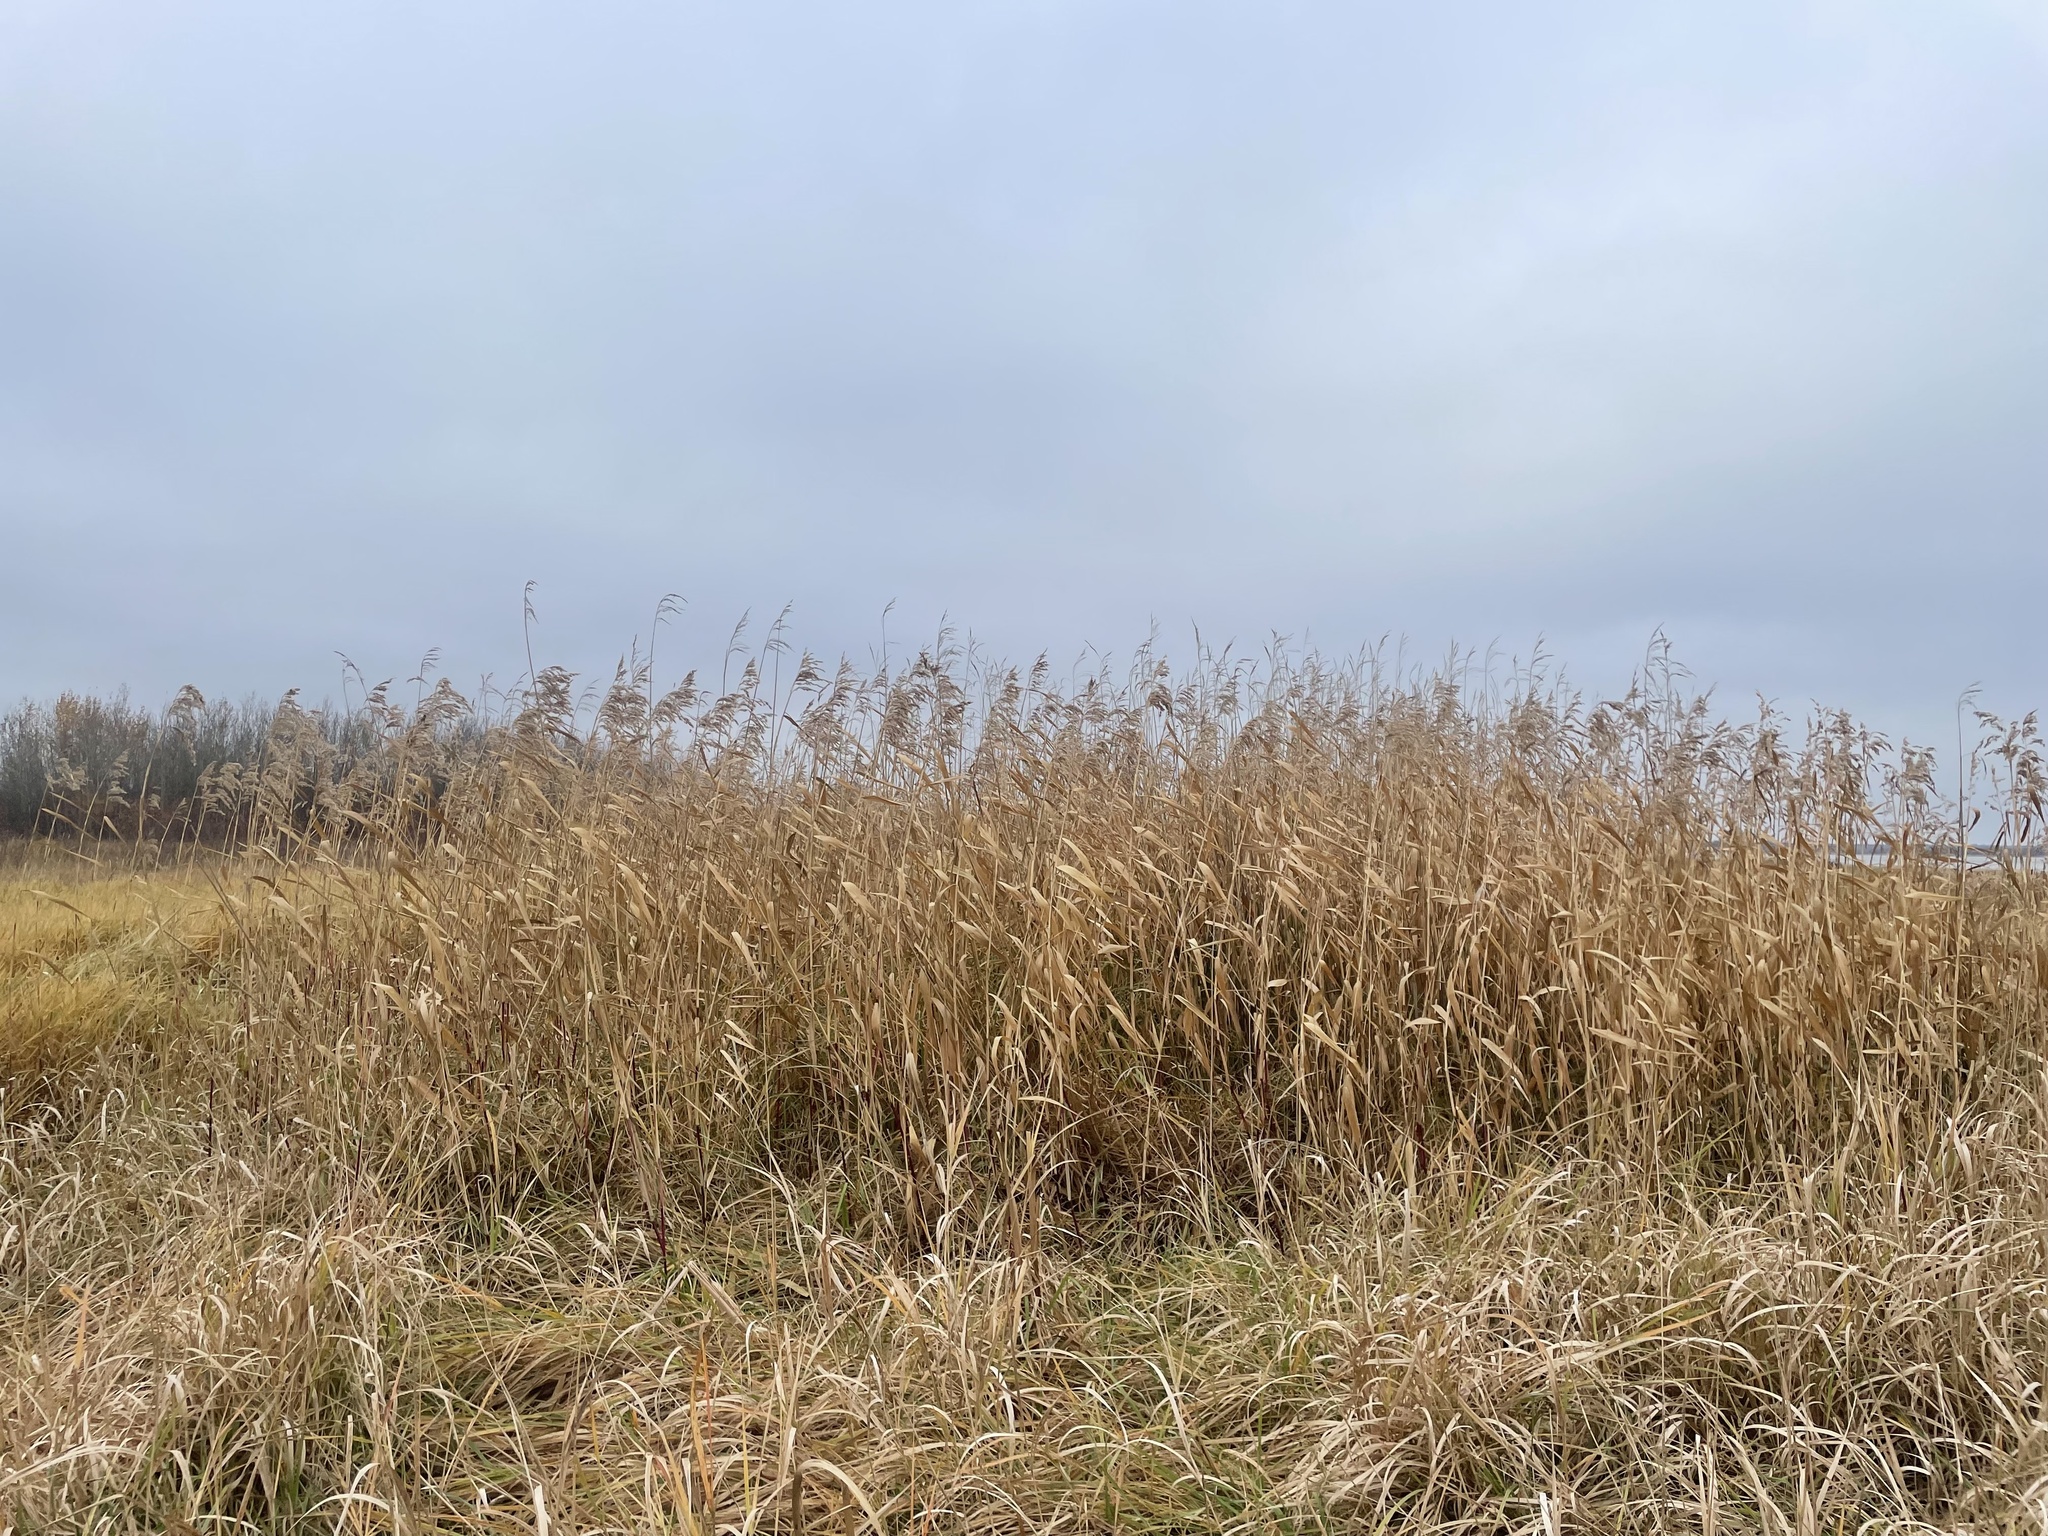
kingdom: Plantae
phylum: Tracheophyta
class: Liliopsida
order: Poales
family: Poaceae
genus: Phragmites
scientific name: Phragmites australis
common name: Common reed
